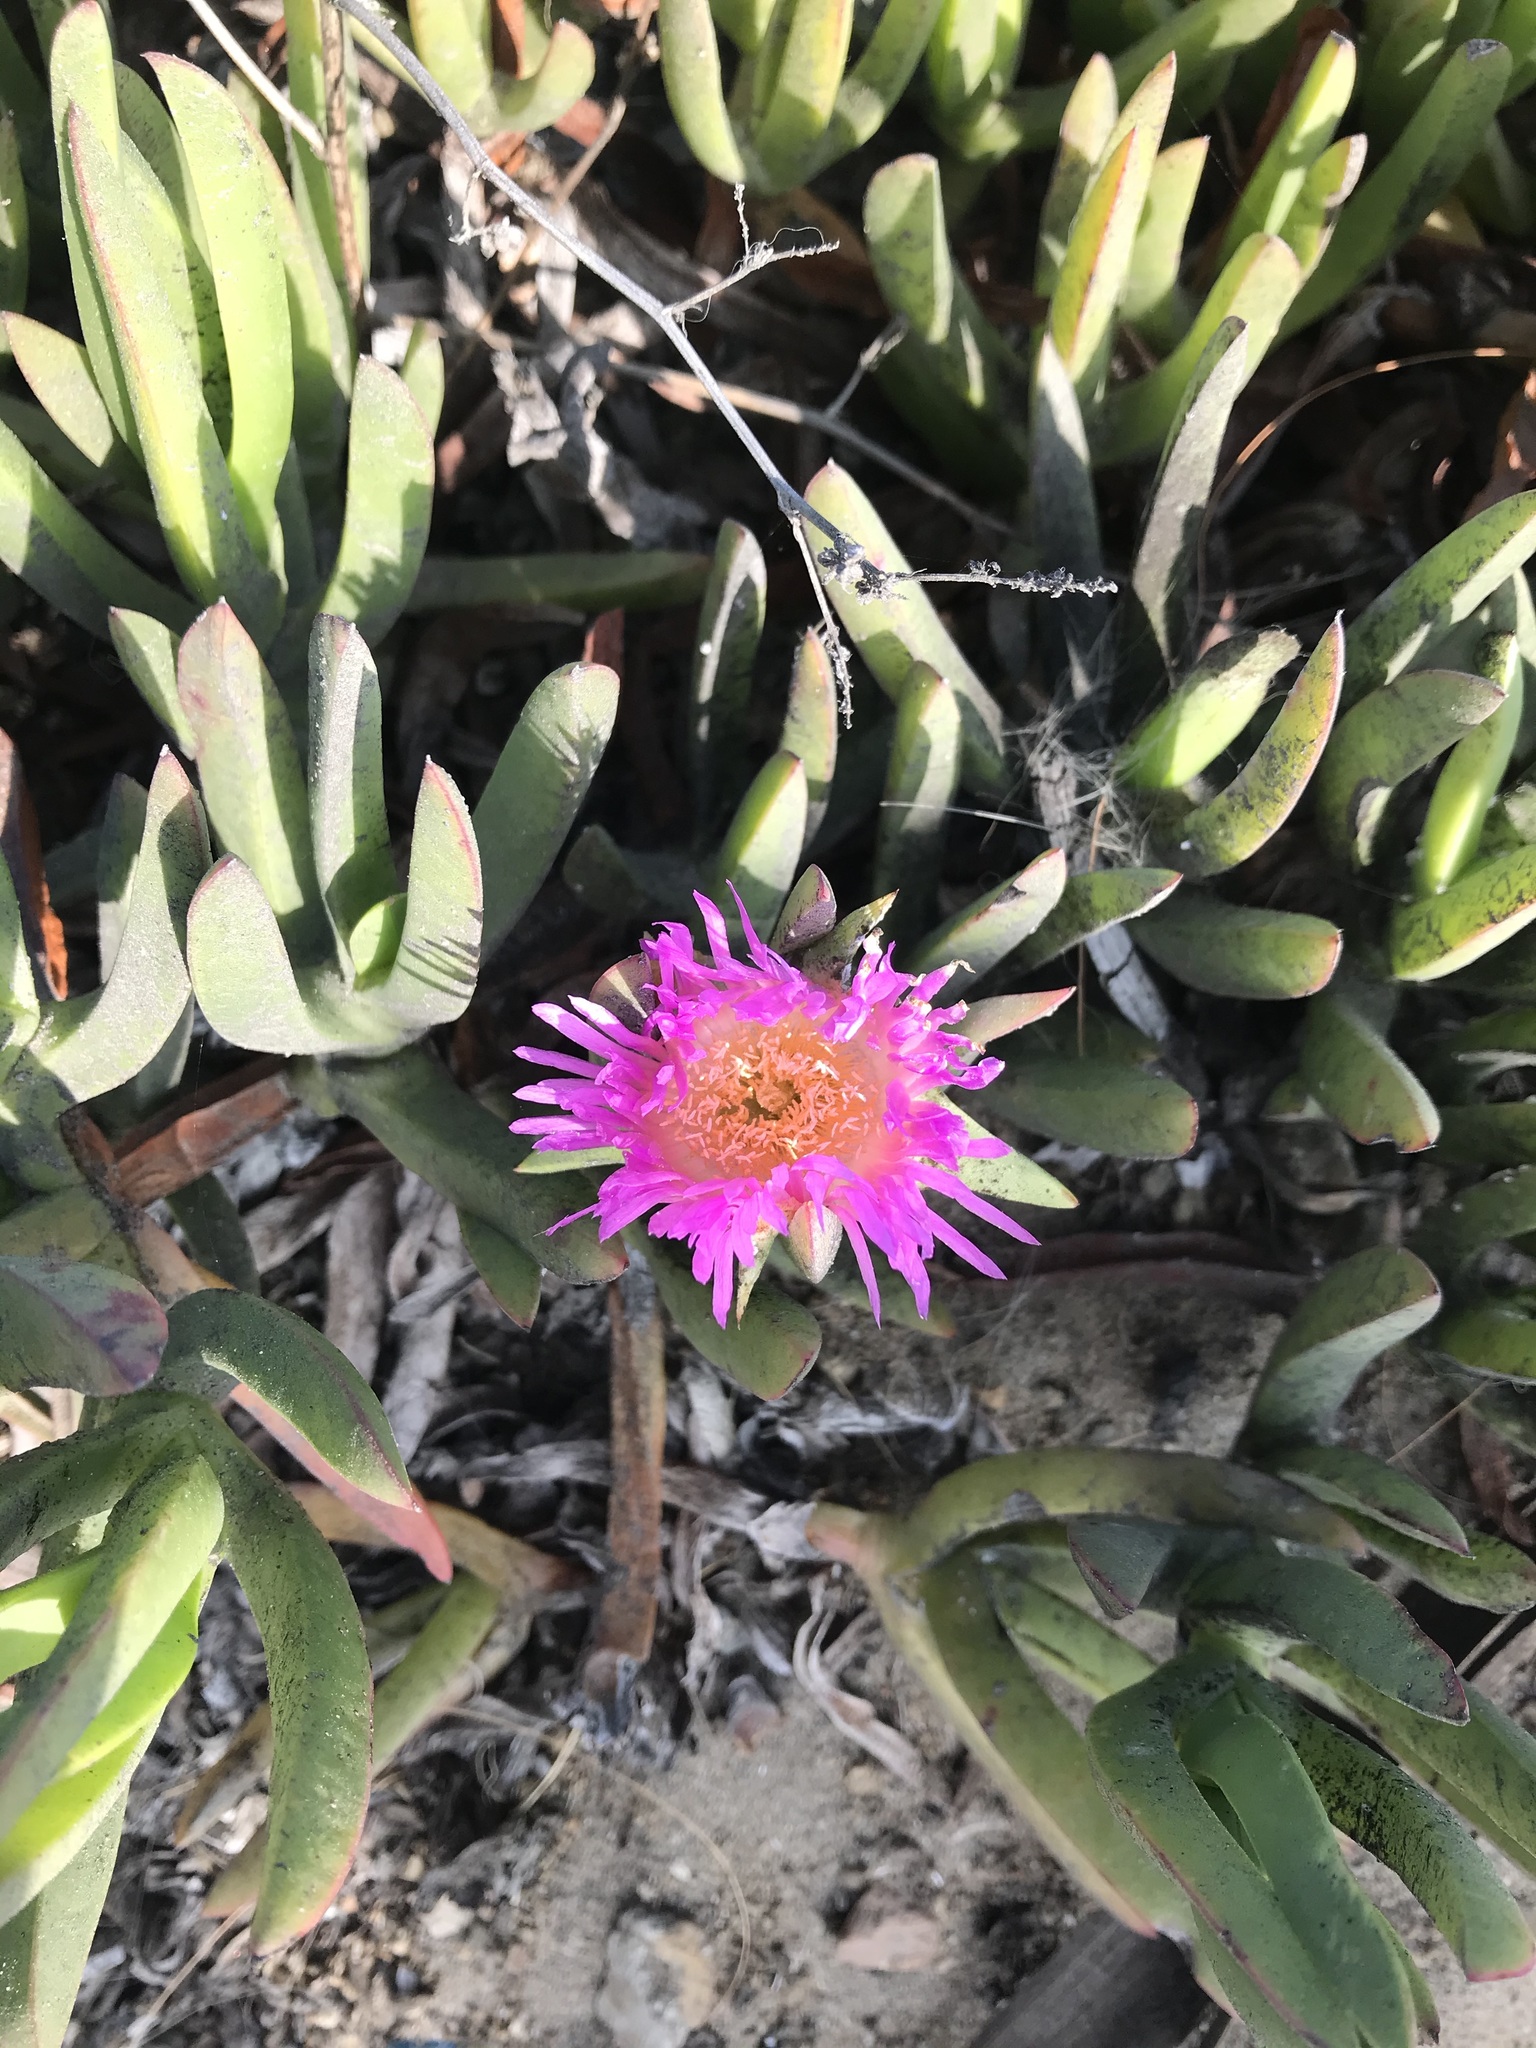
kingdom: Plantae
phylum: Tracheophyta
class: Magnoliopsida
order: Caryophyllales
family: Aizoaceae
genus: Carpobrotus
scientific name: Carpobrotus chilensis
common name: Sea fig
